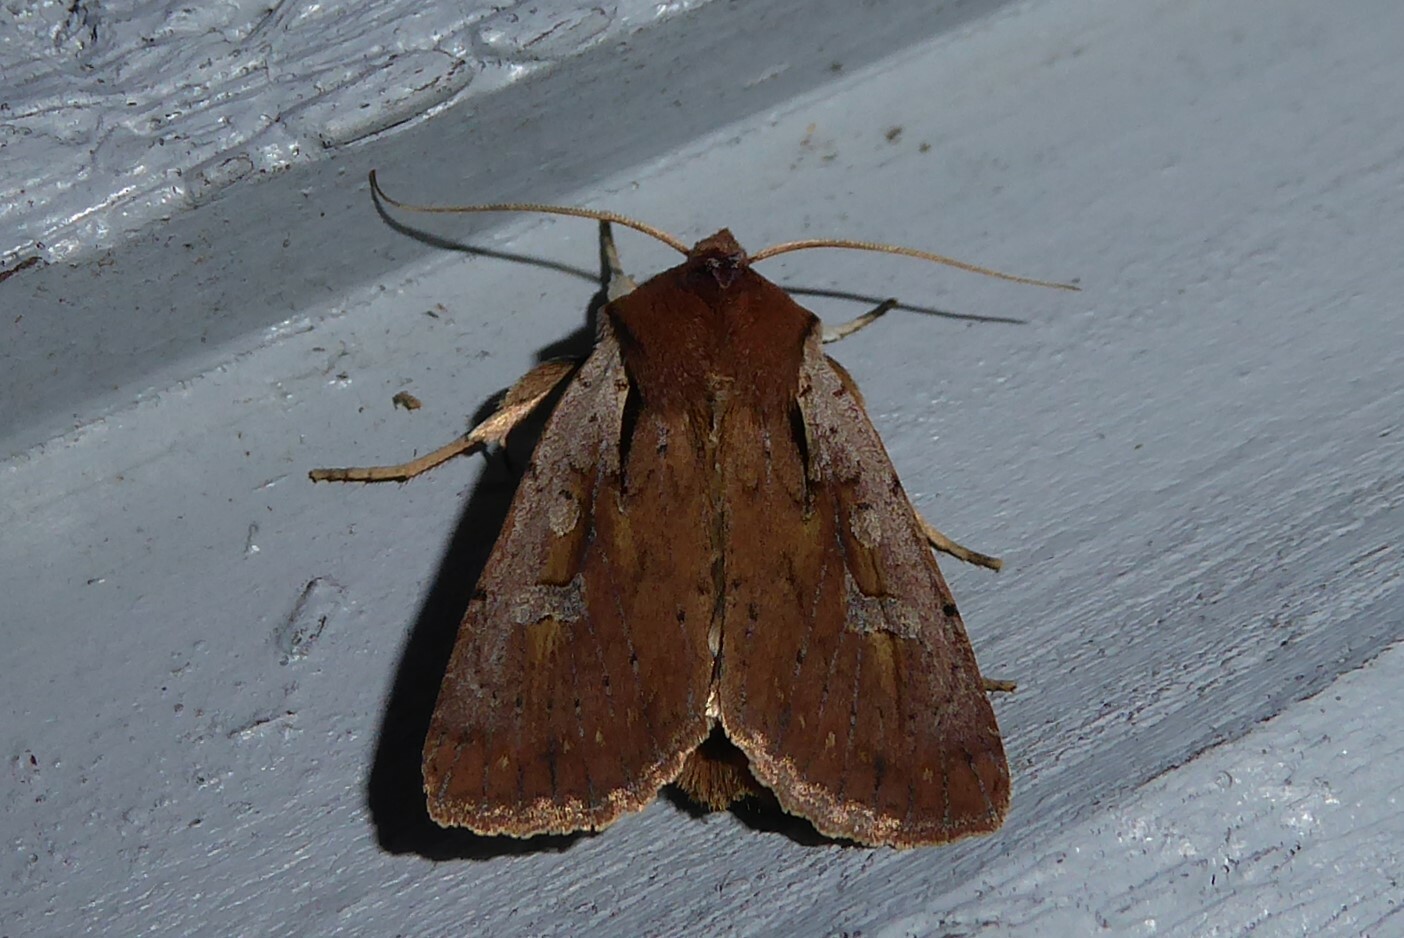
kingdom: Animalia
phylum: Arthropoda
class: Insecta
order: Lepidoptera
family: Noctuidae
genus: Ichneutica
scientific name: Ichneutica atristriga
